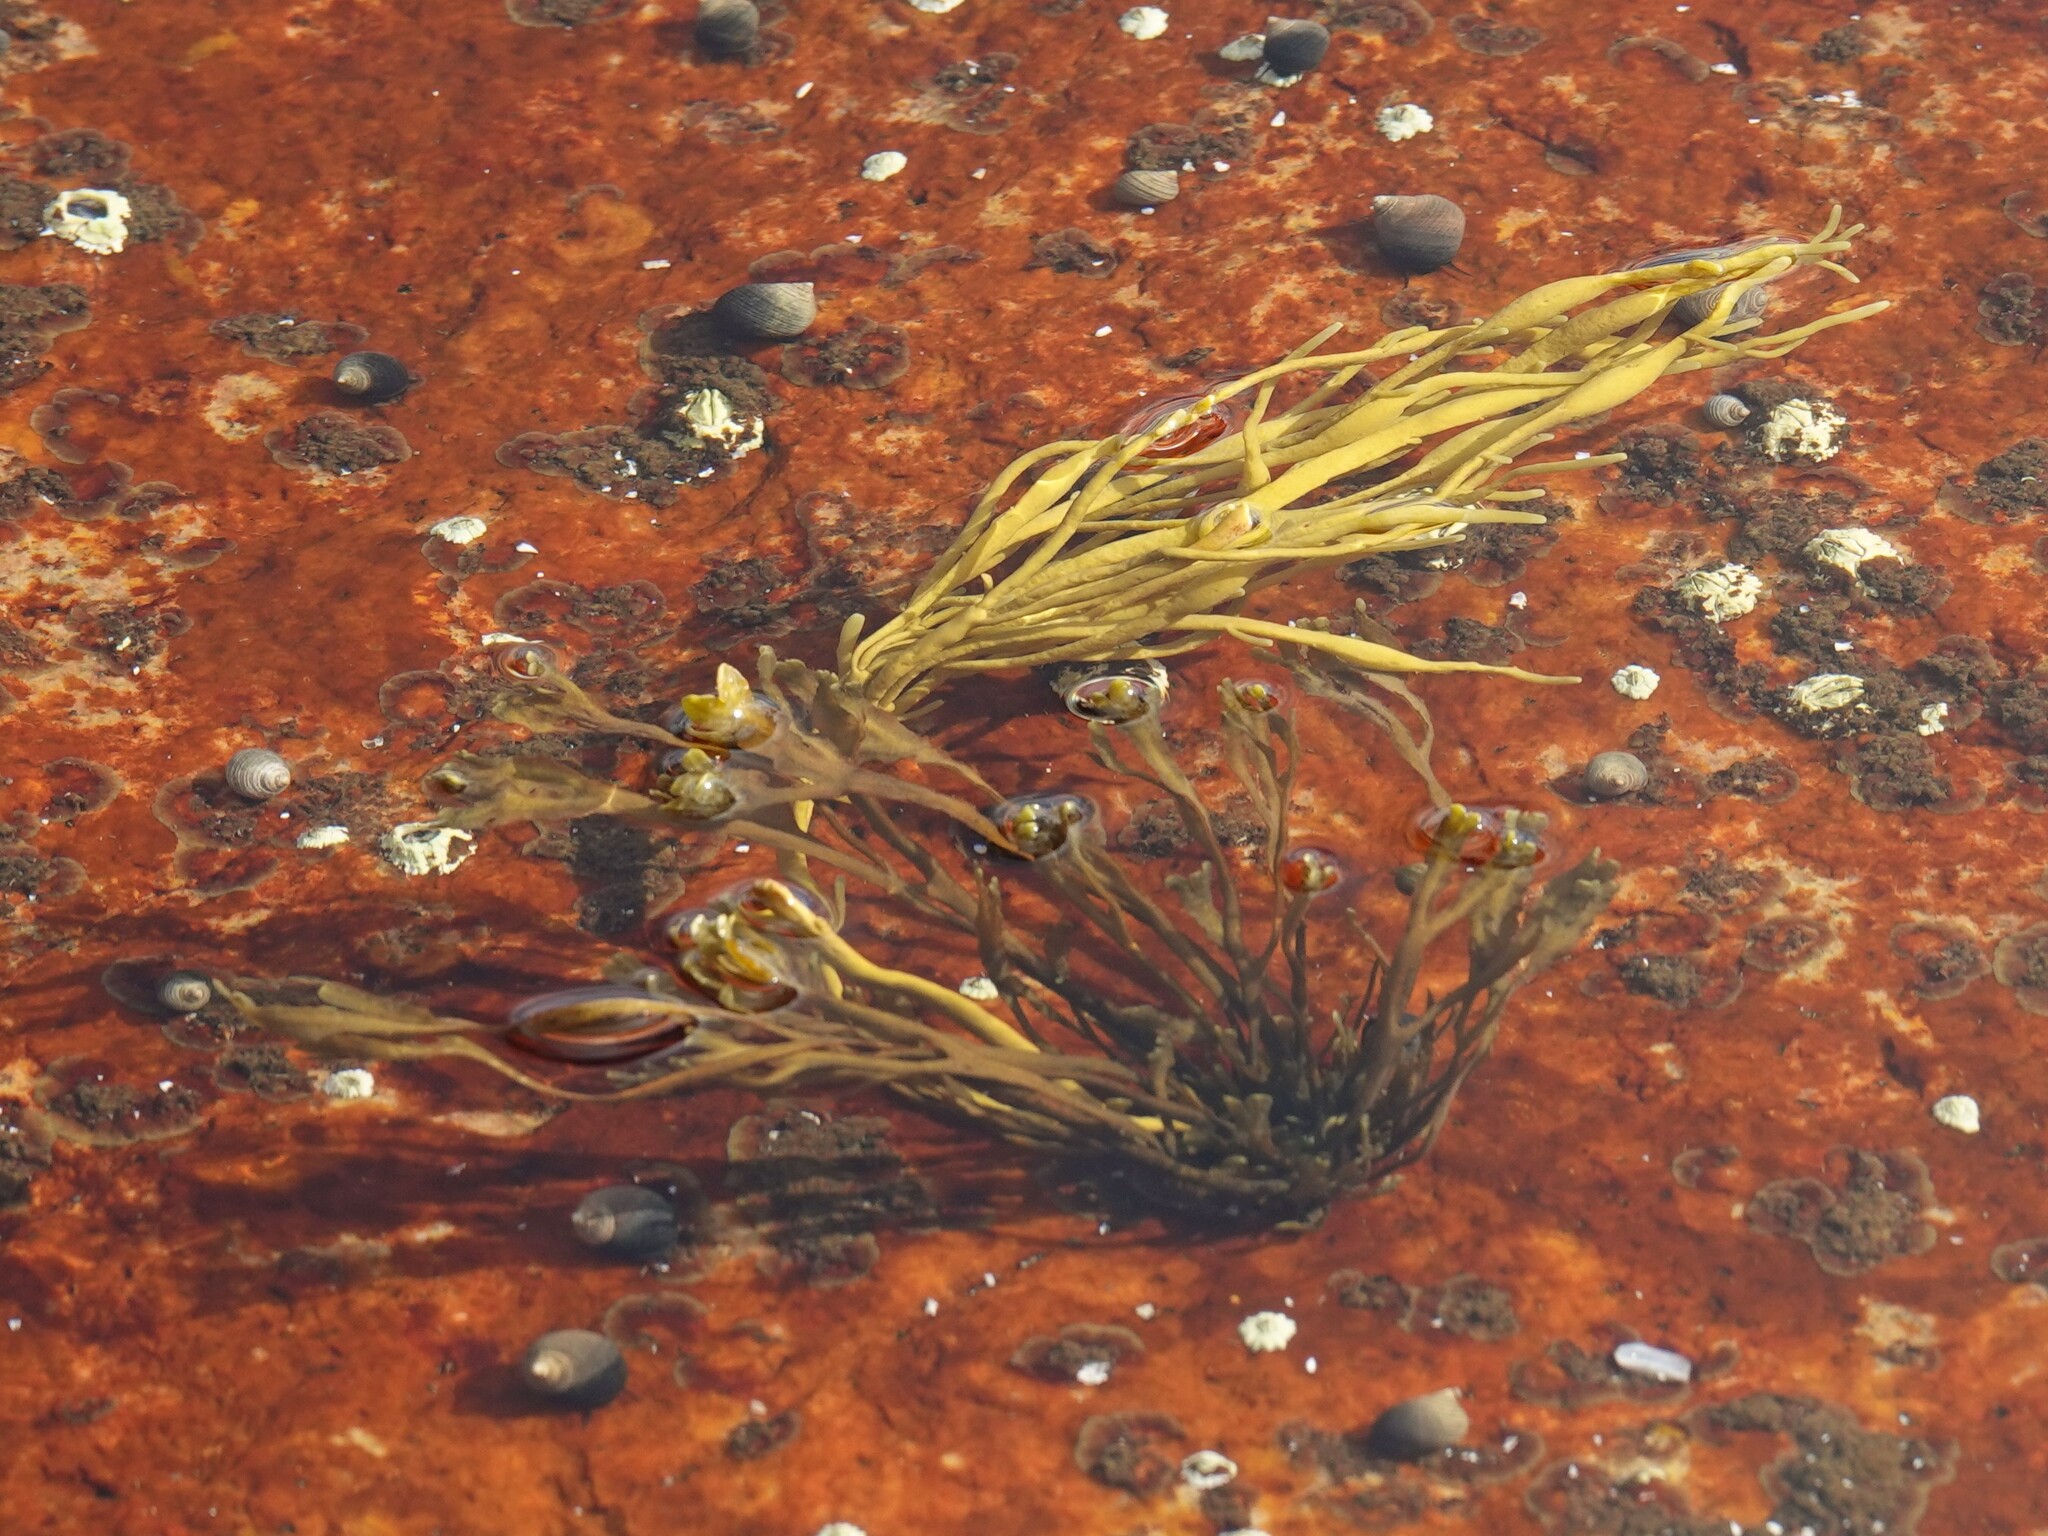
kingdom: Chromista
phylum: Ochrophyta
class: Phaeophyceae
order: Fucales
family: Fucaceae
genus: Ascophyllum
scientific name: Ascophyllum nodosum
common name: Knotted wrack
